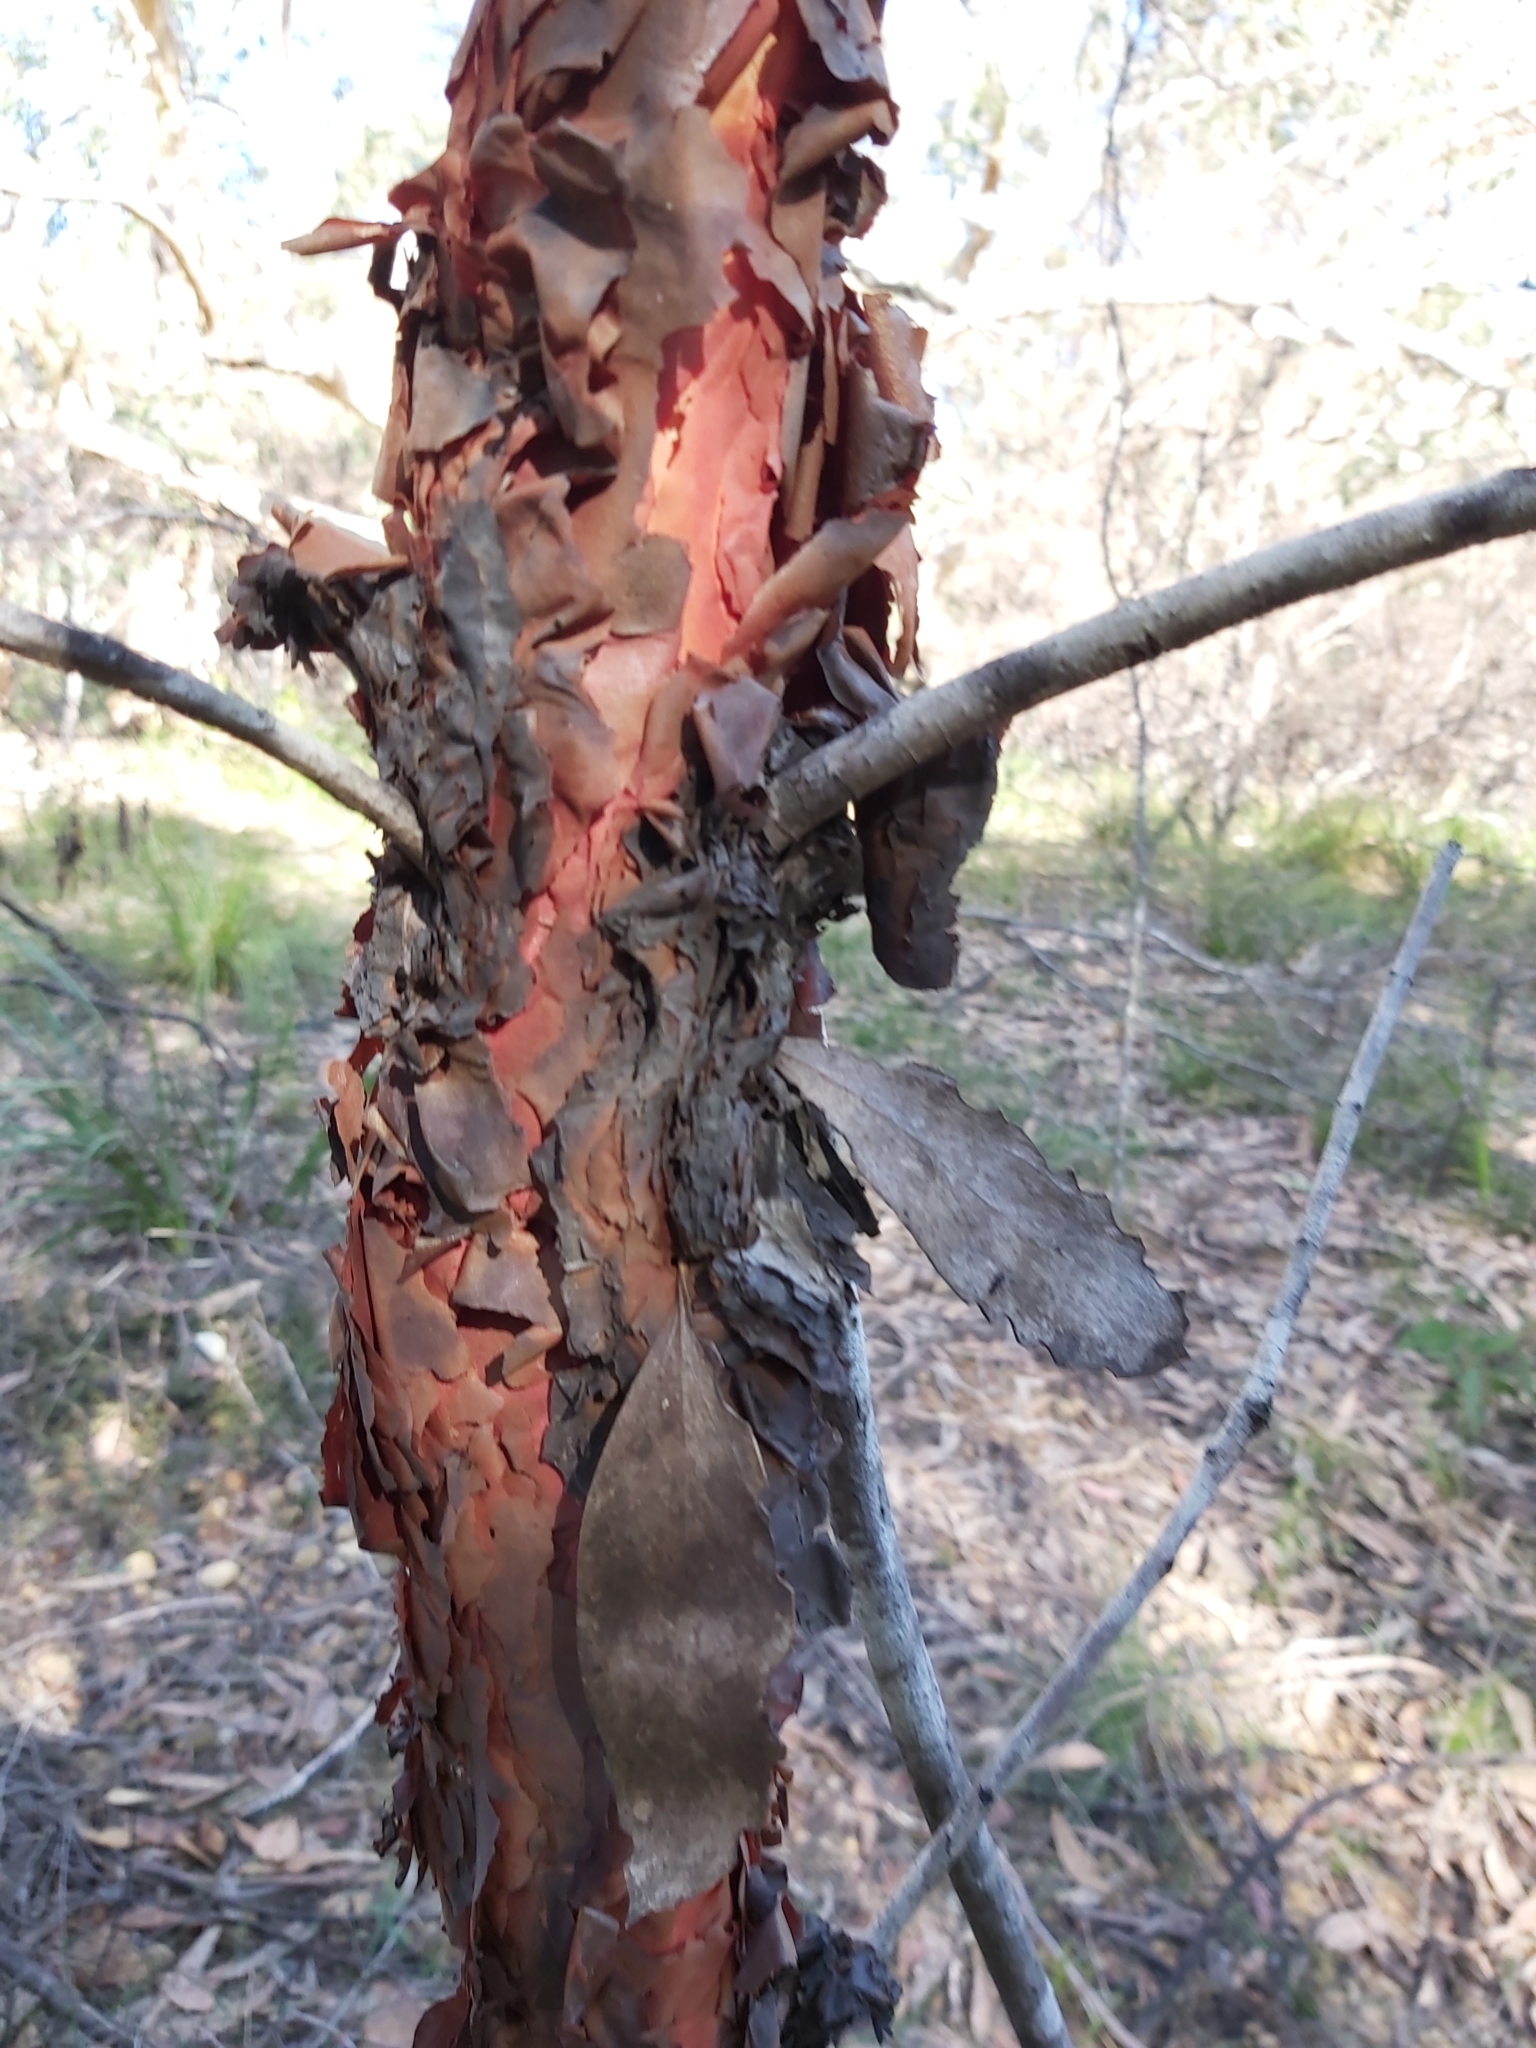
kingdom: Plantae
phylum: Tracheophyta
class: Magnoliopsida
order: Proteales
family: Proteaceae
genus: Persoonia
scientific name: Persoonia levis
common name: Smooth geebung
